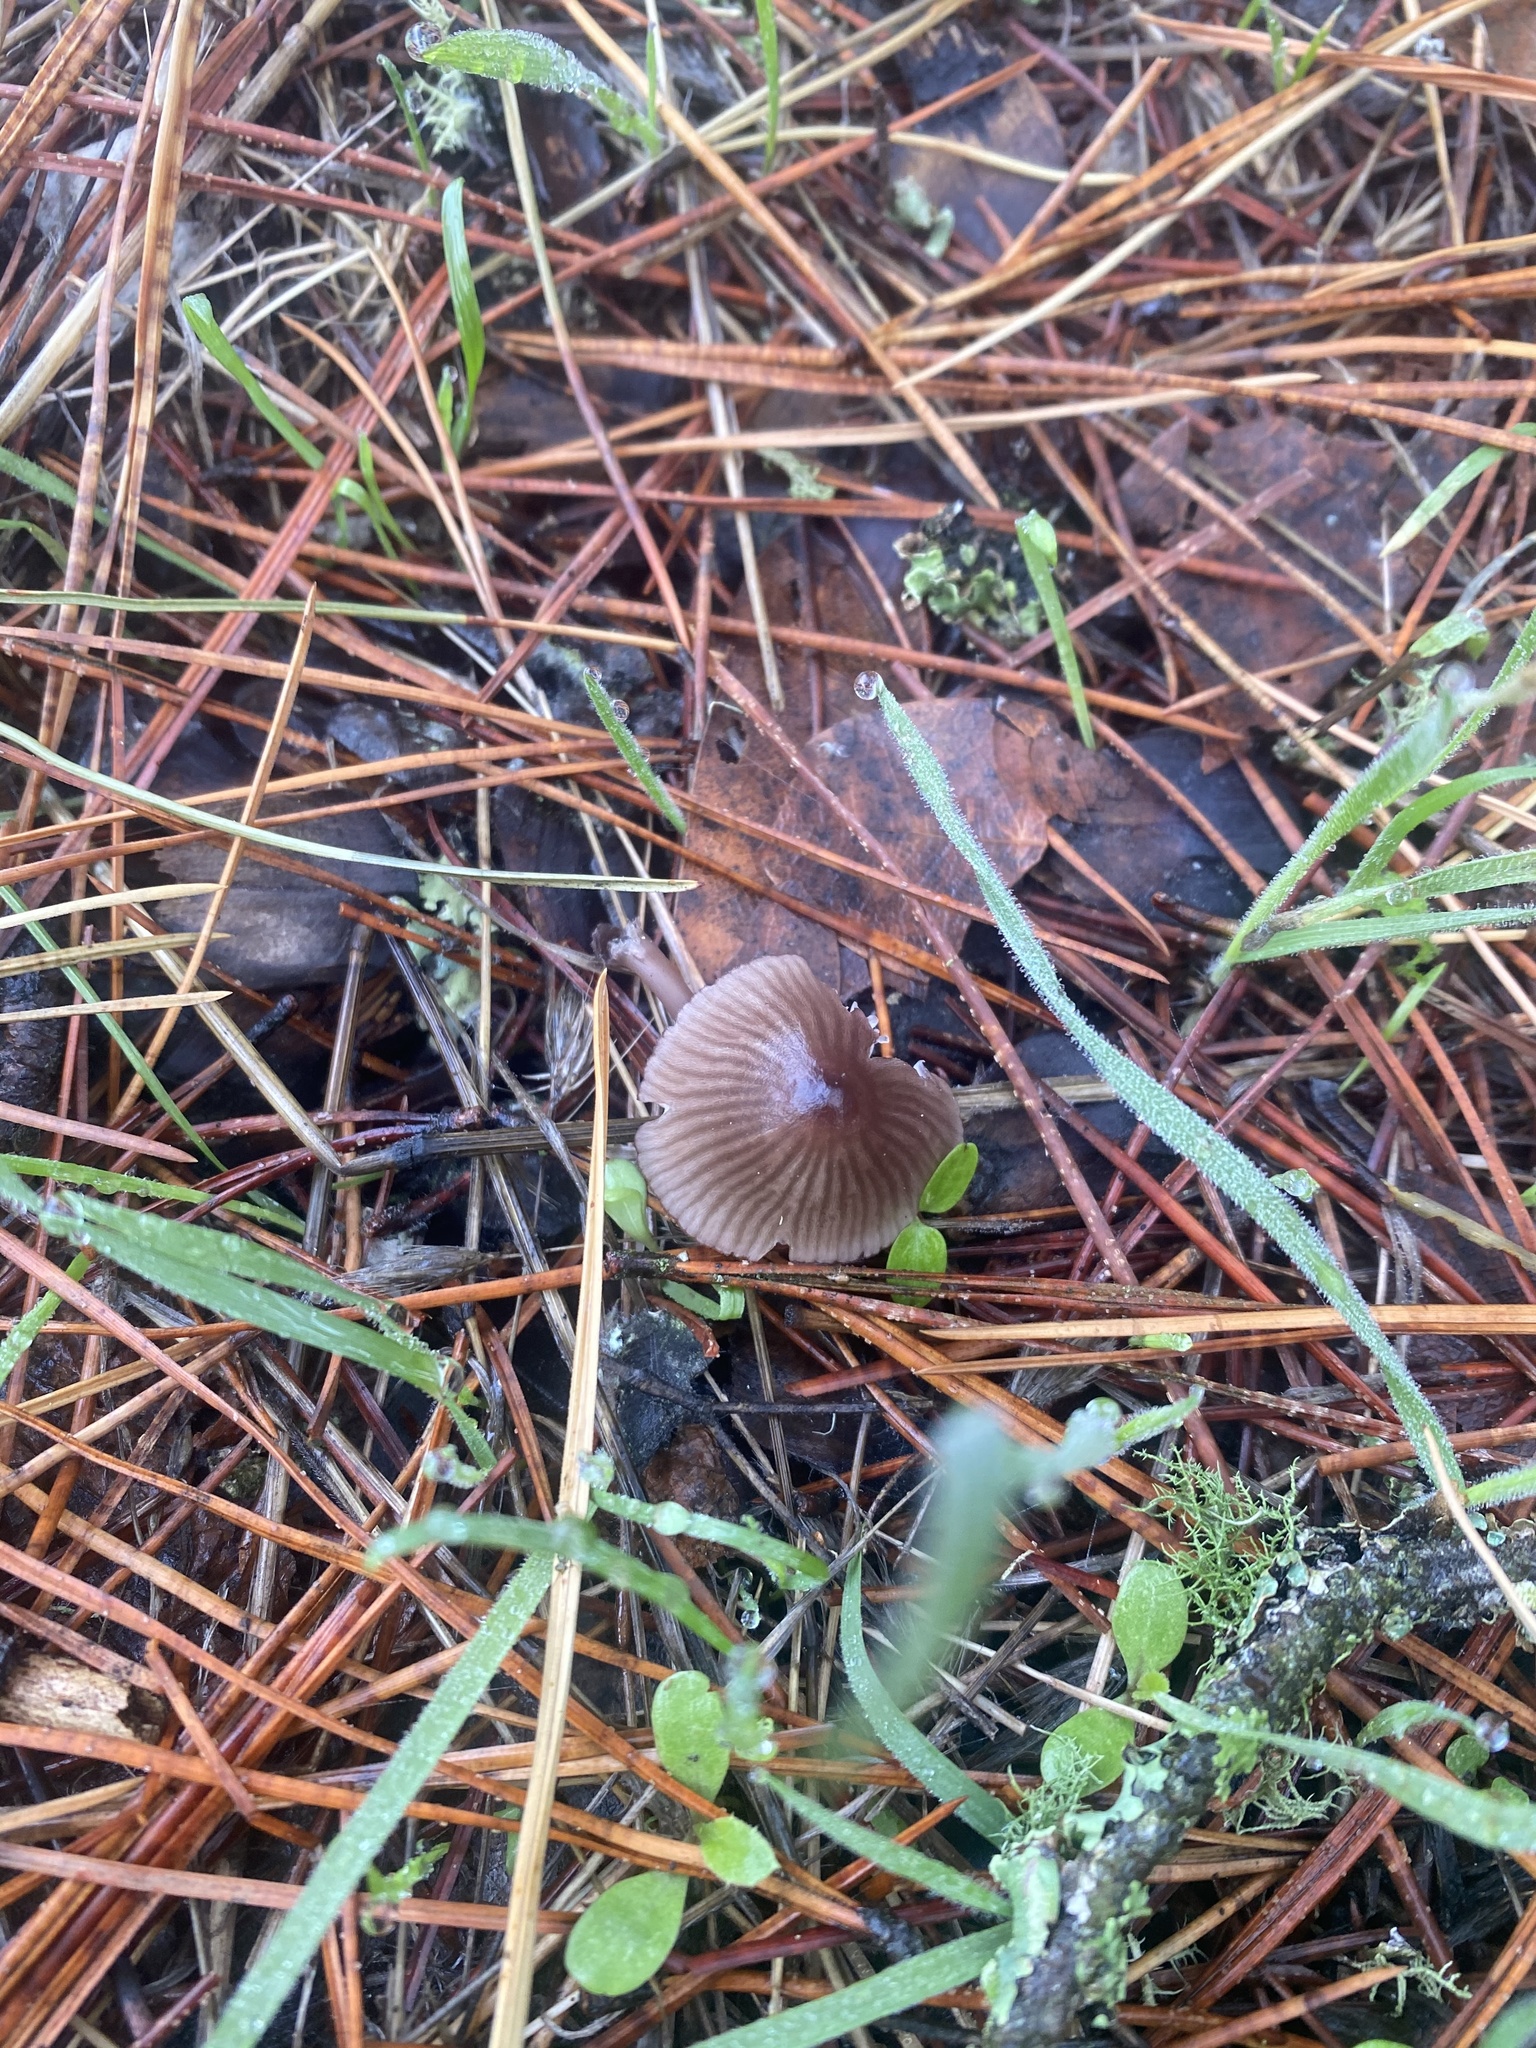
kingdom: Fungi
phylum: Basidiomycota
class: Agaricomycetes
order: Agaricales
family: Mycenaceae
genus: Mycena
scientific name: Mycena purpureofusca
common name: Purple edge bonnet
